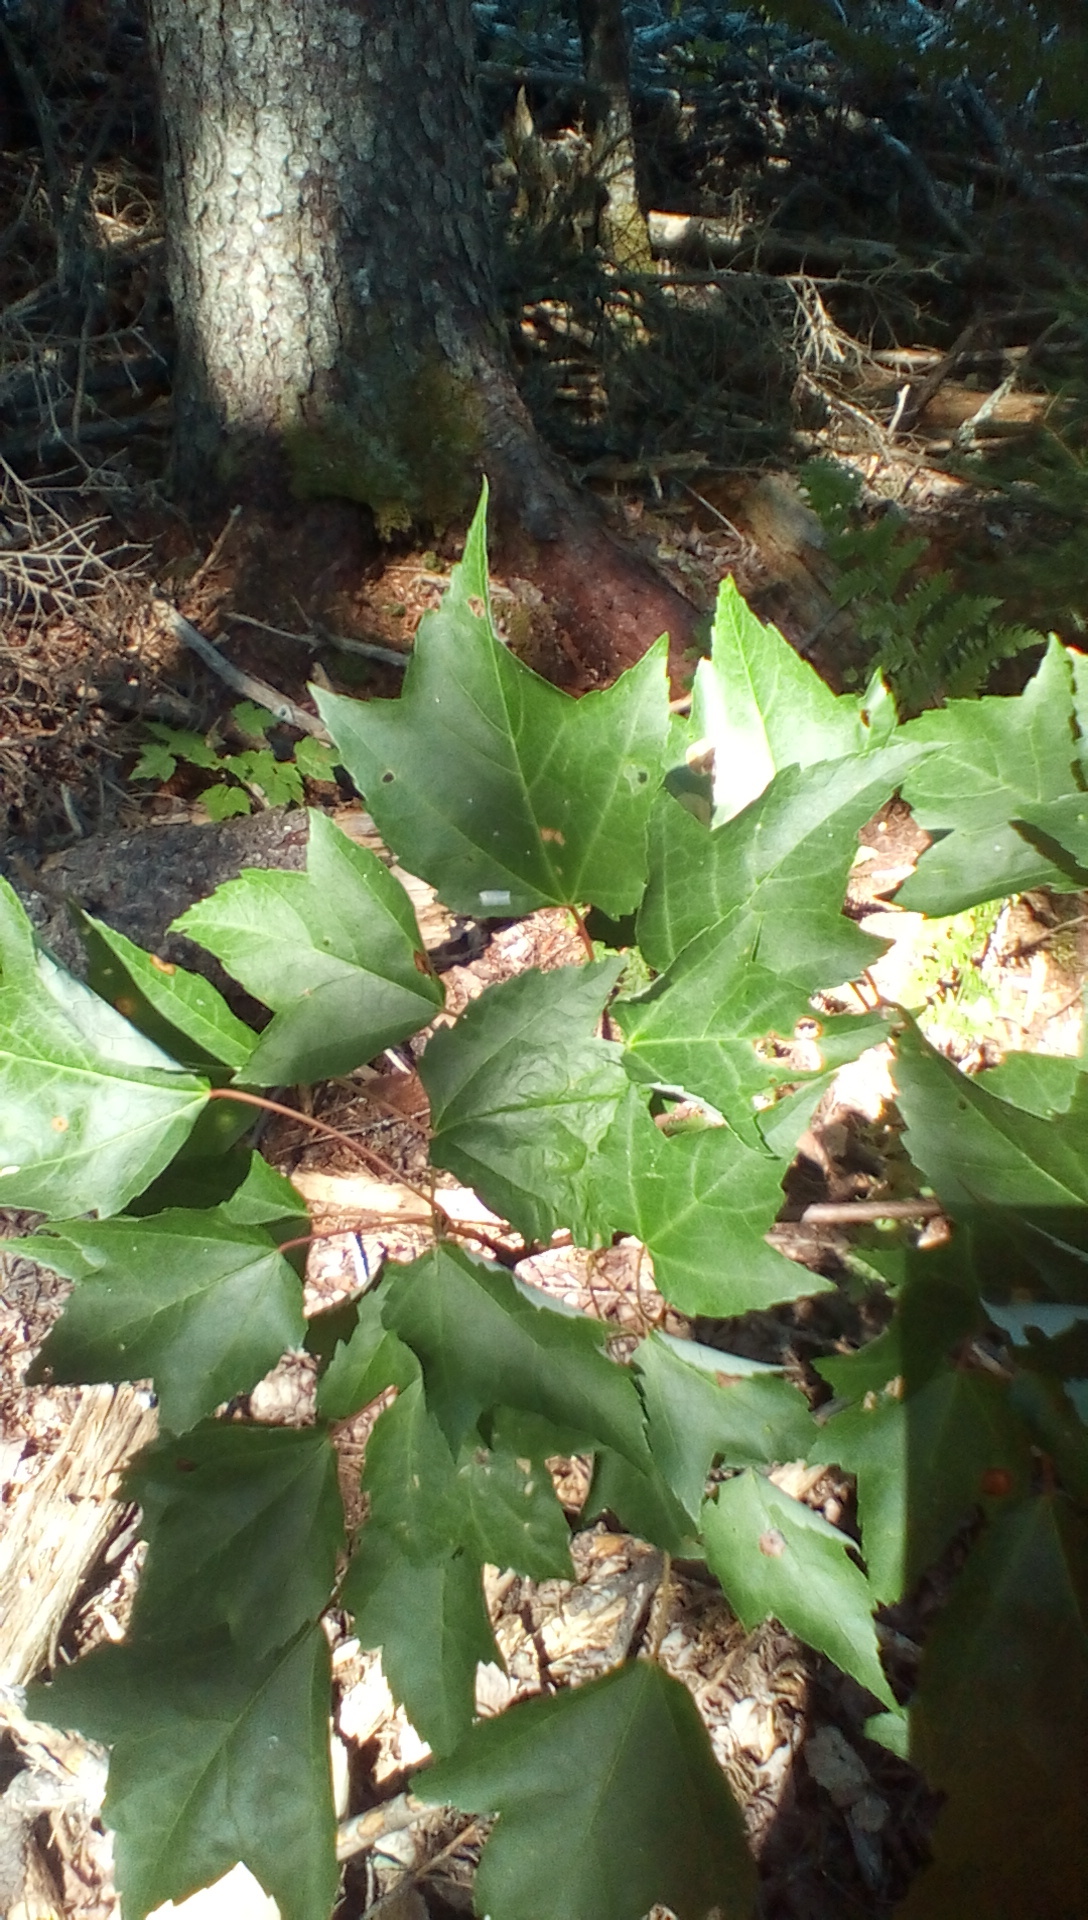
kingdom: Plantae
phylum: Tracheophyta
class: Magnoliopsida
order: Sapindales
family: Sapindaceae
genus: Acer
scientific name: Acer rubrum
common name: Red maple
